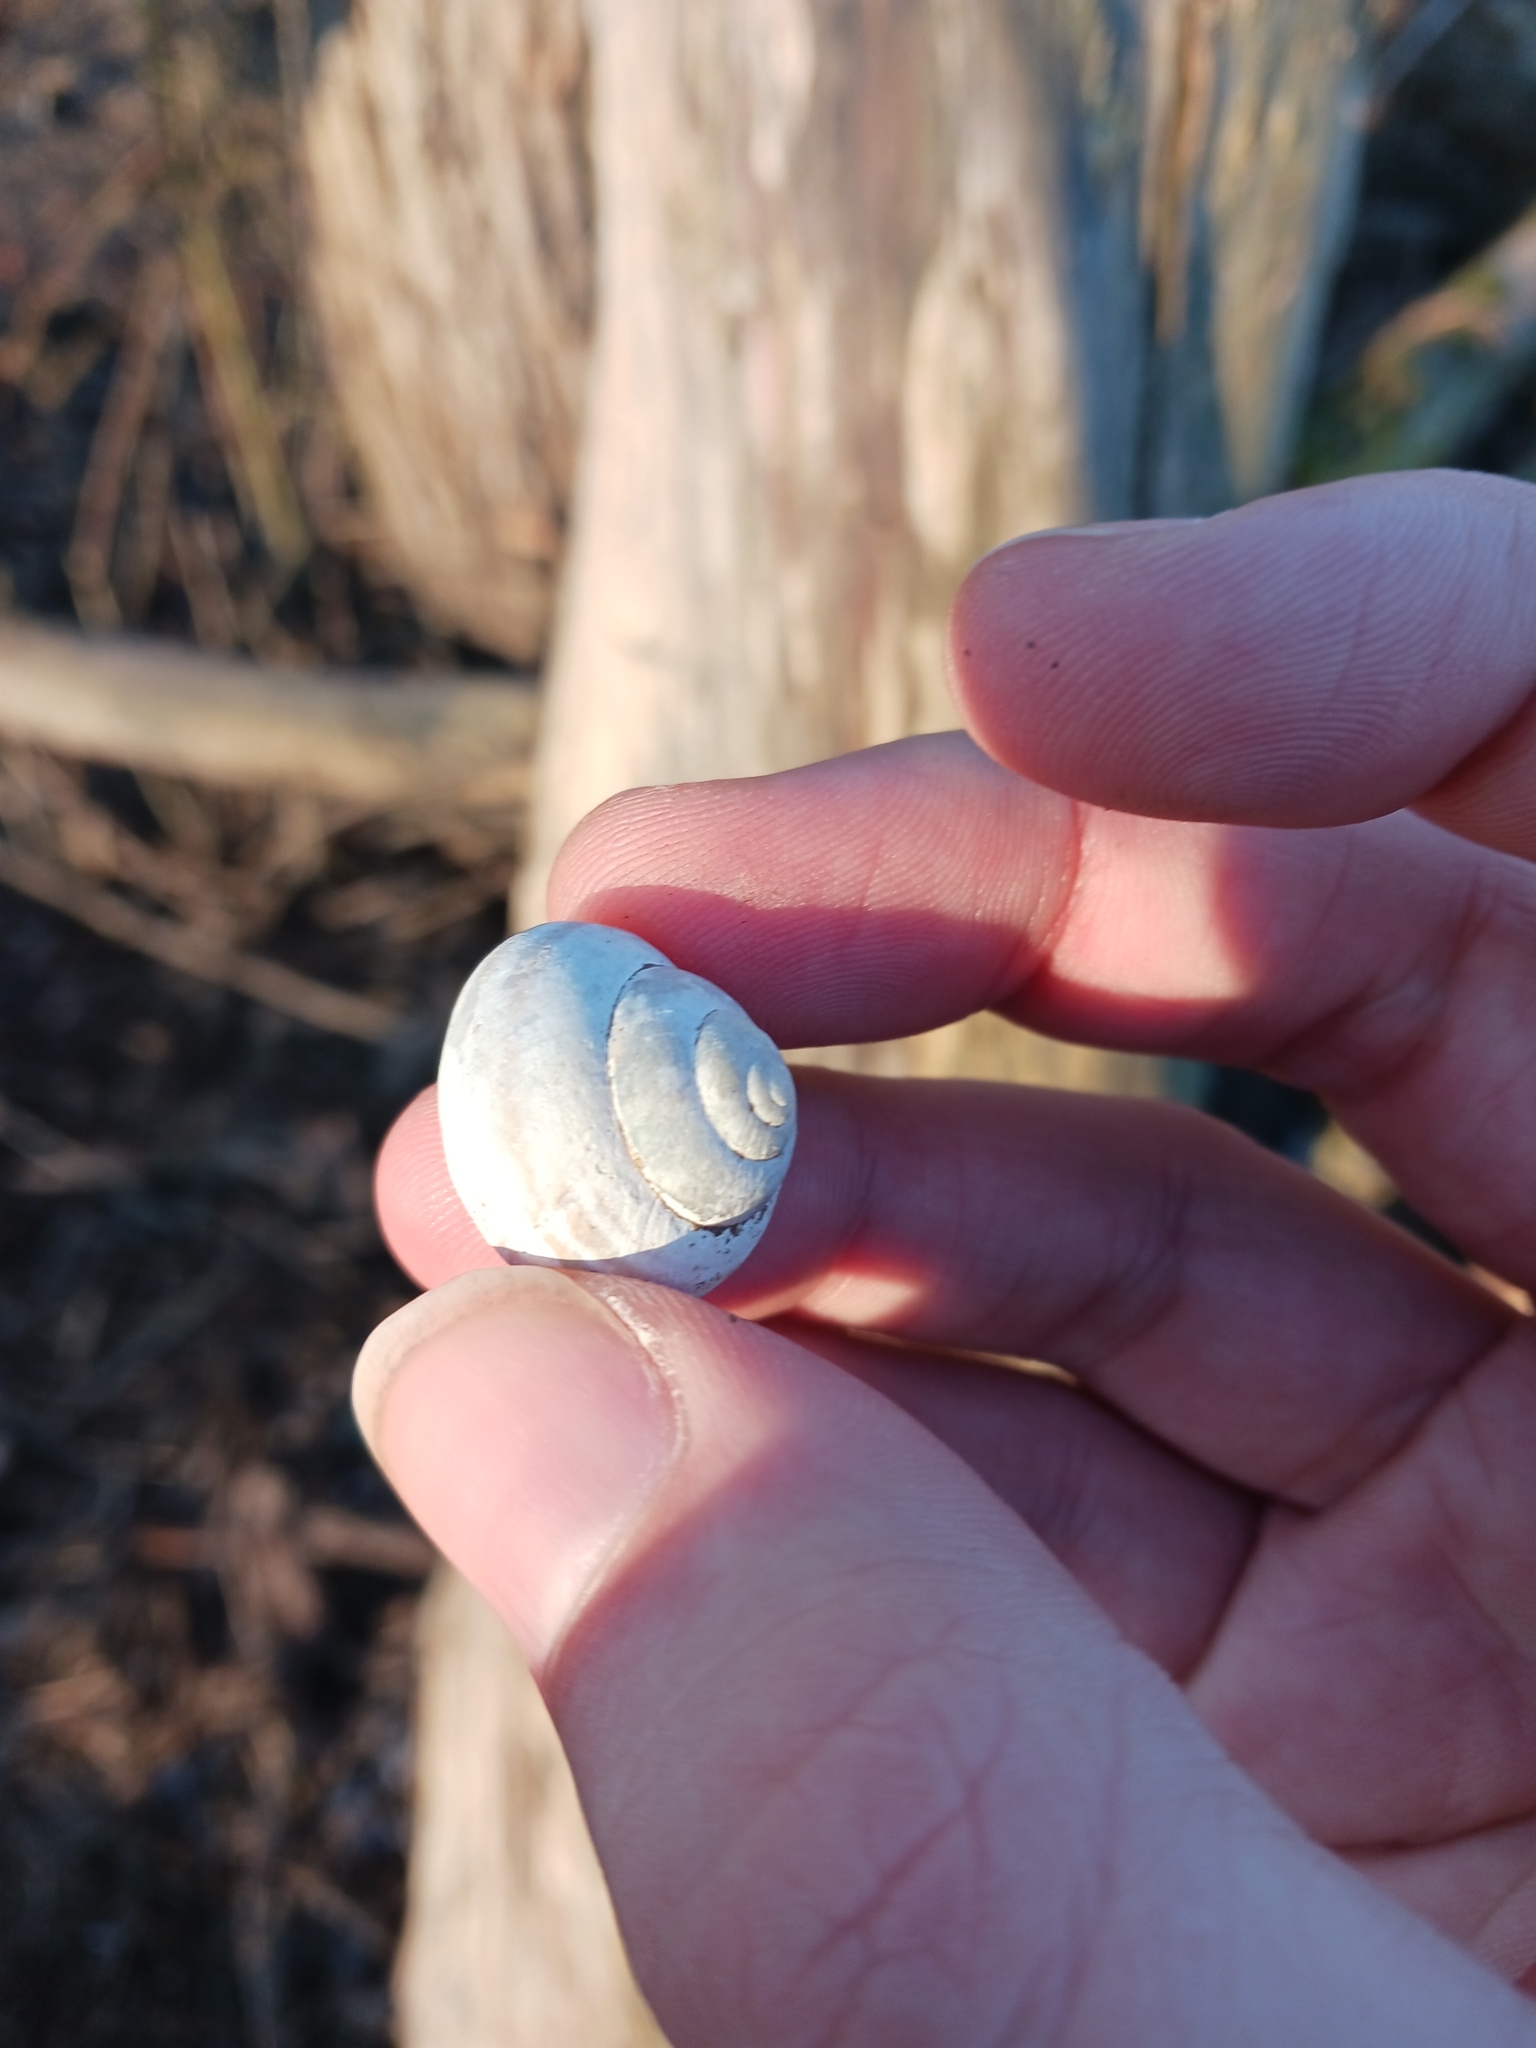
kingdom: Animalia
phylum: Mollusca
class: Gastropoda
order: Stylommatophora
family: Helicidae
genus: Cepaea
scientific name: Cepaea nemoralis
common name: Grovesnail
